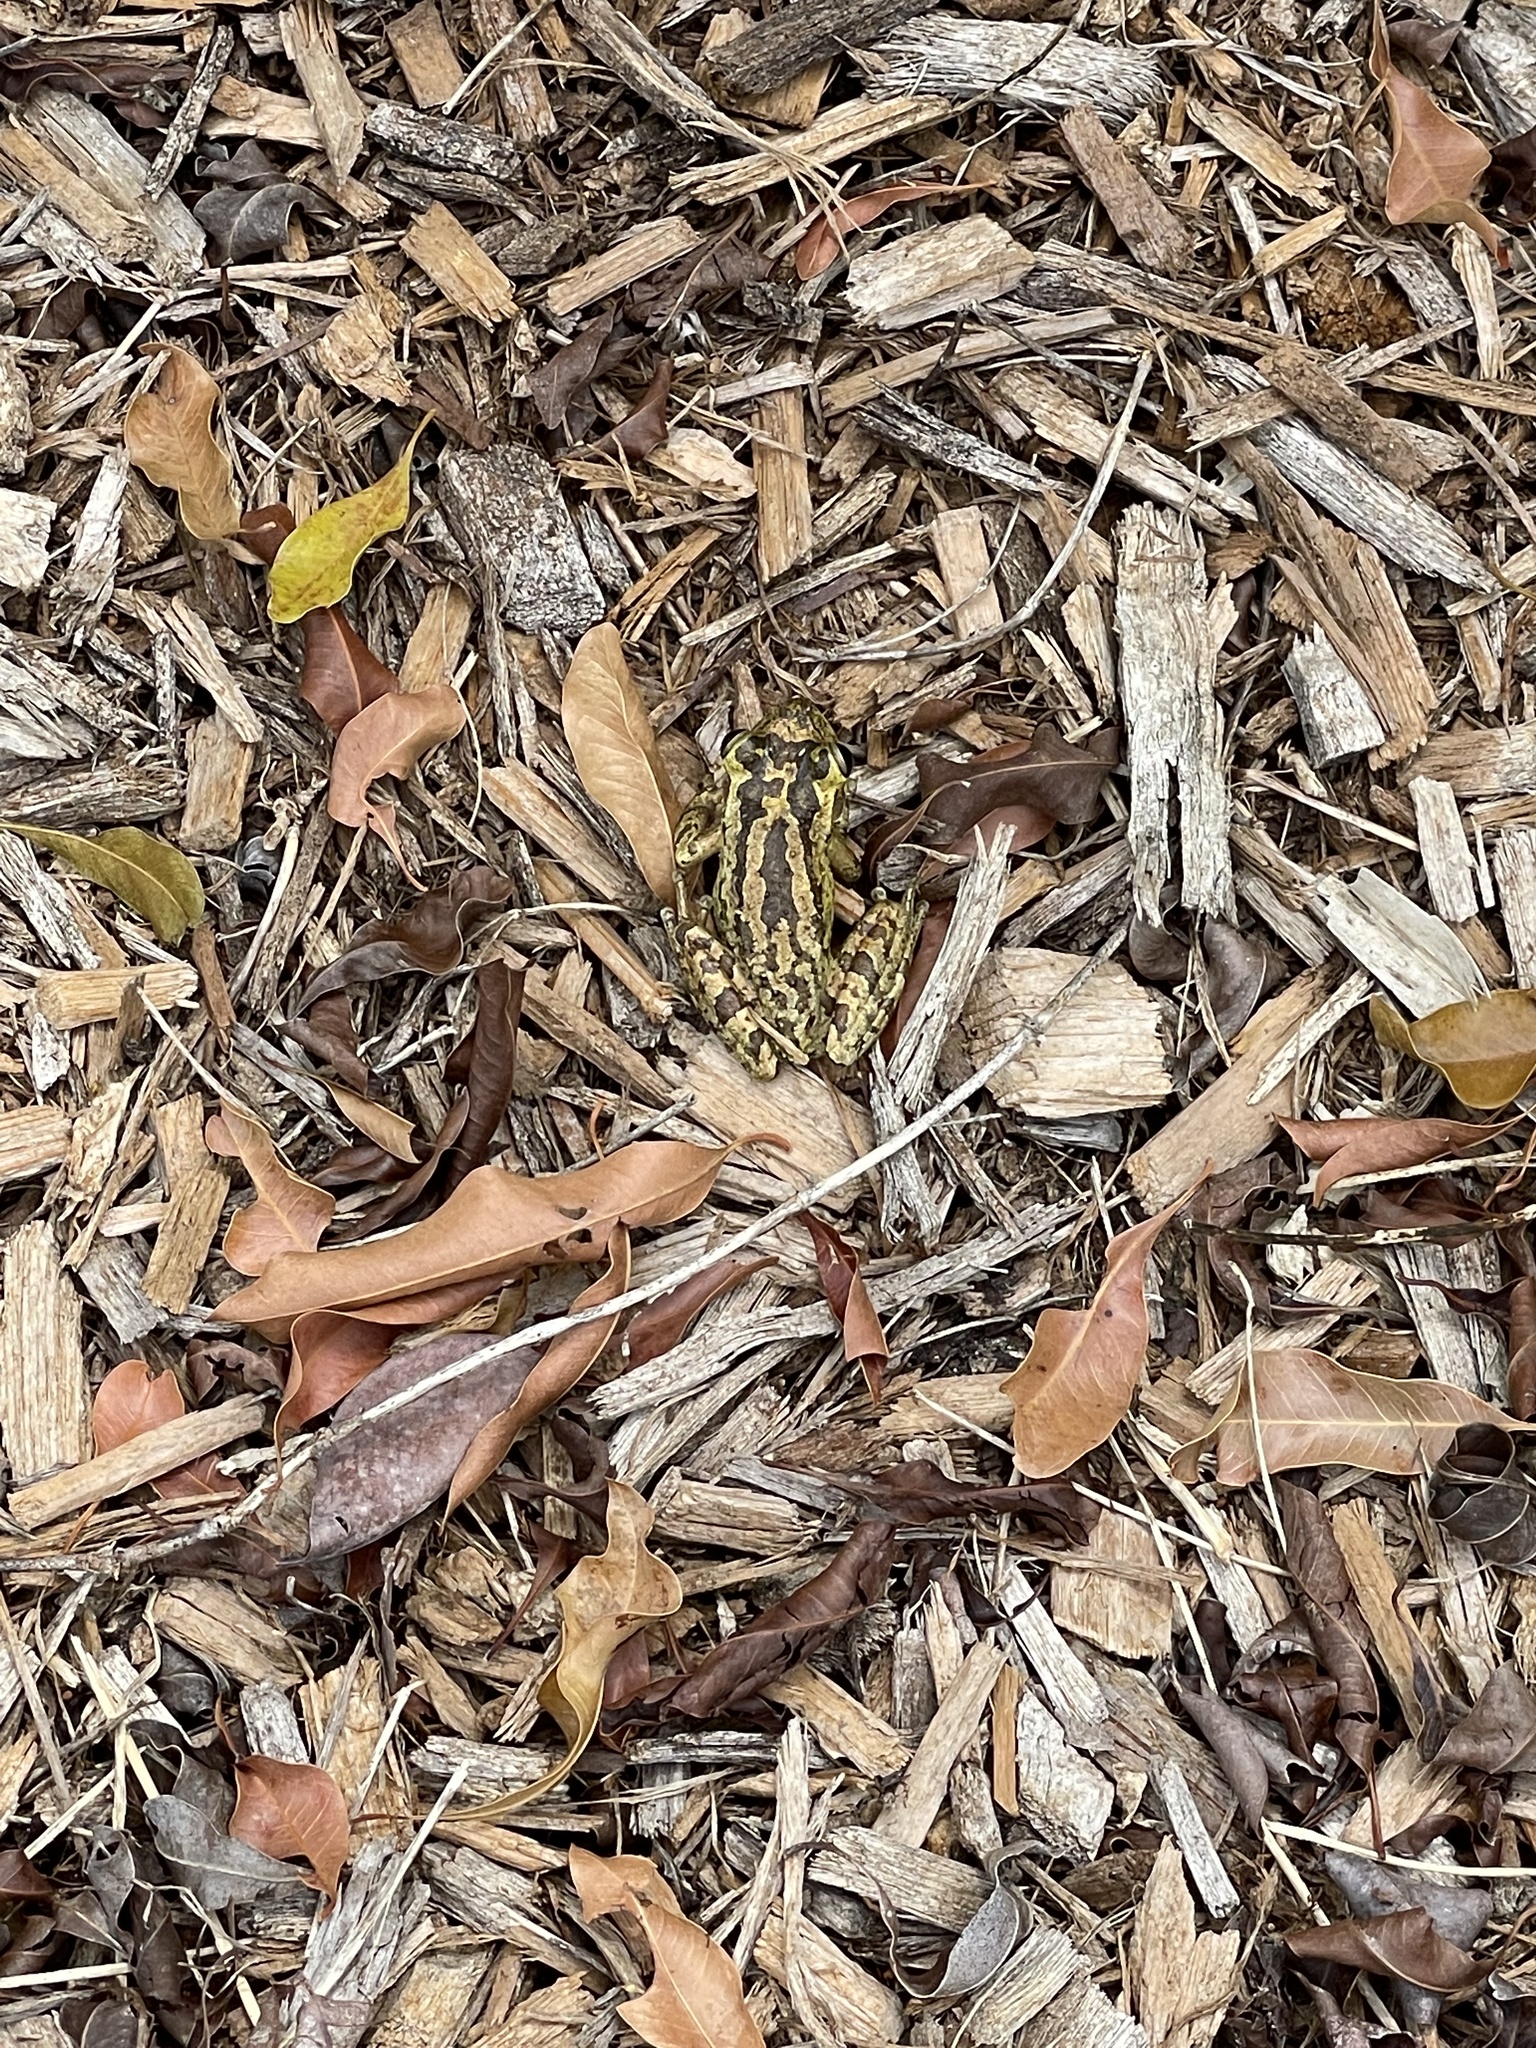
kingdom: Animalia
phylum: Chordata
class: Amphibia
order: Anura
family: Hylidae
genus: Osteopilus
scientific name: Osteopilus septentrionalis
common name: Cuban treefrog
